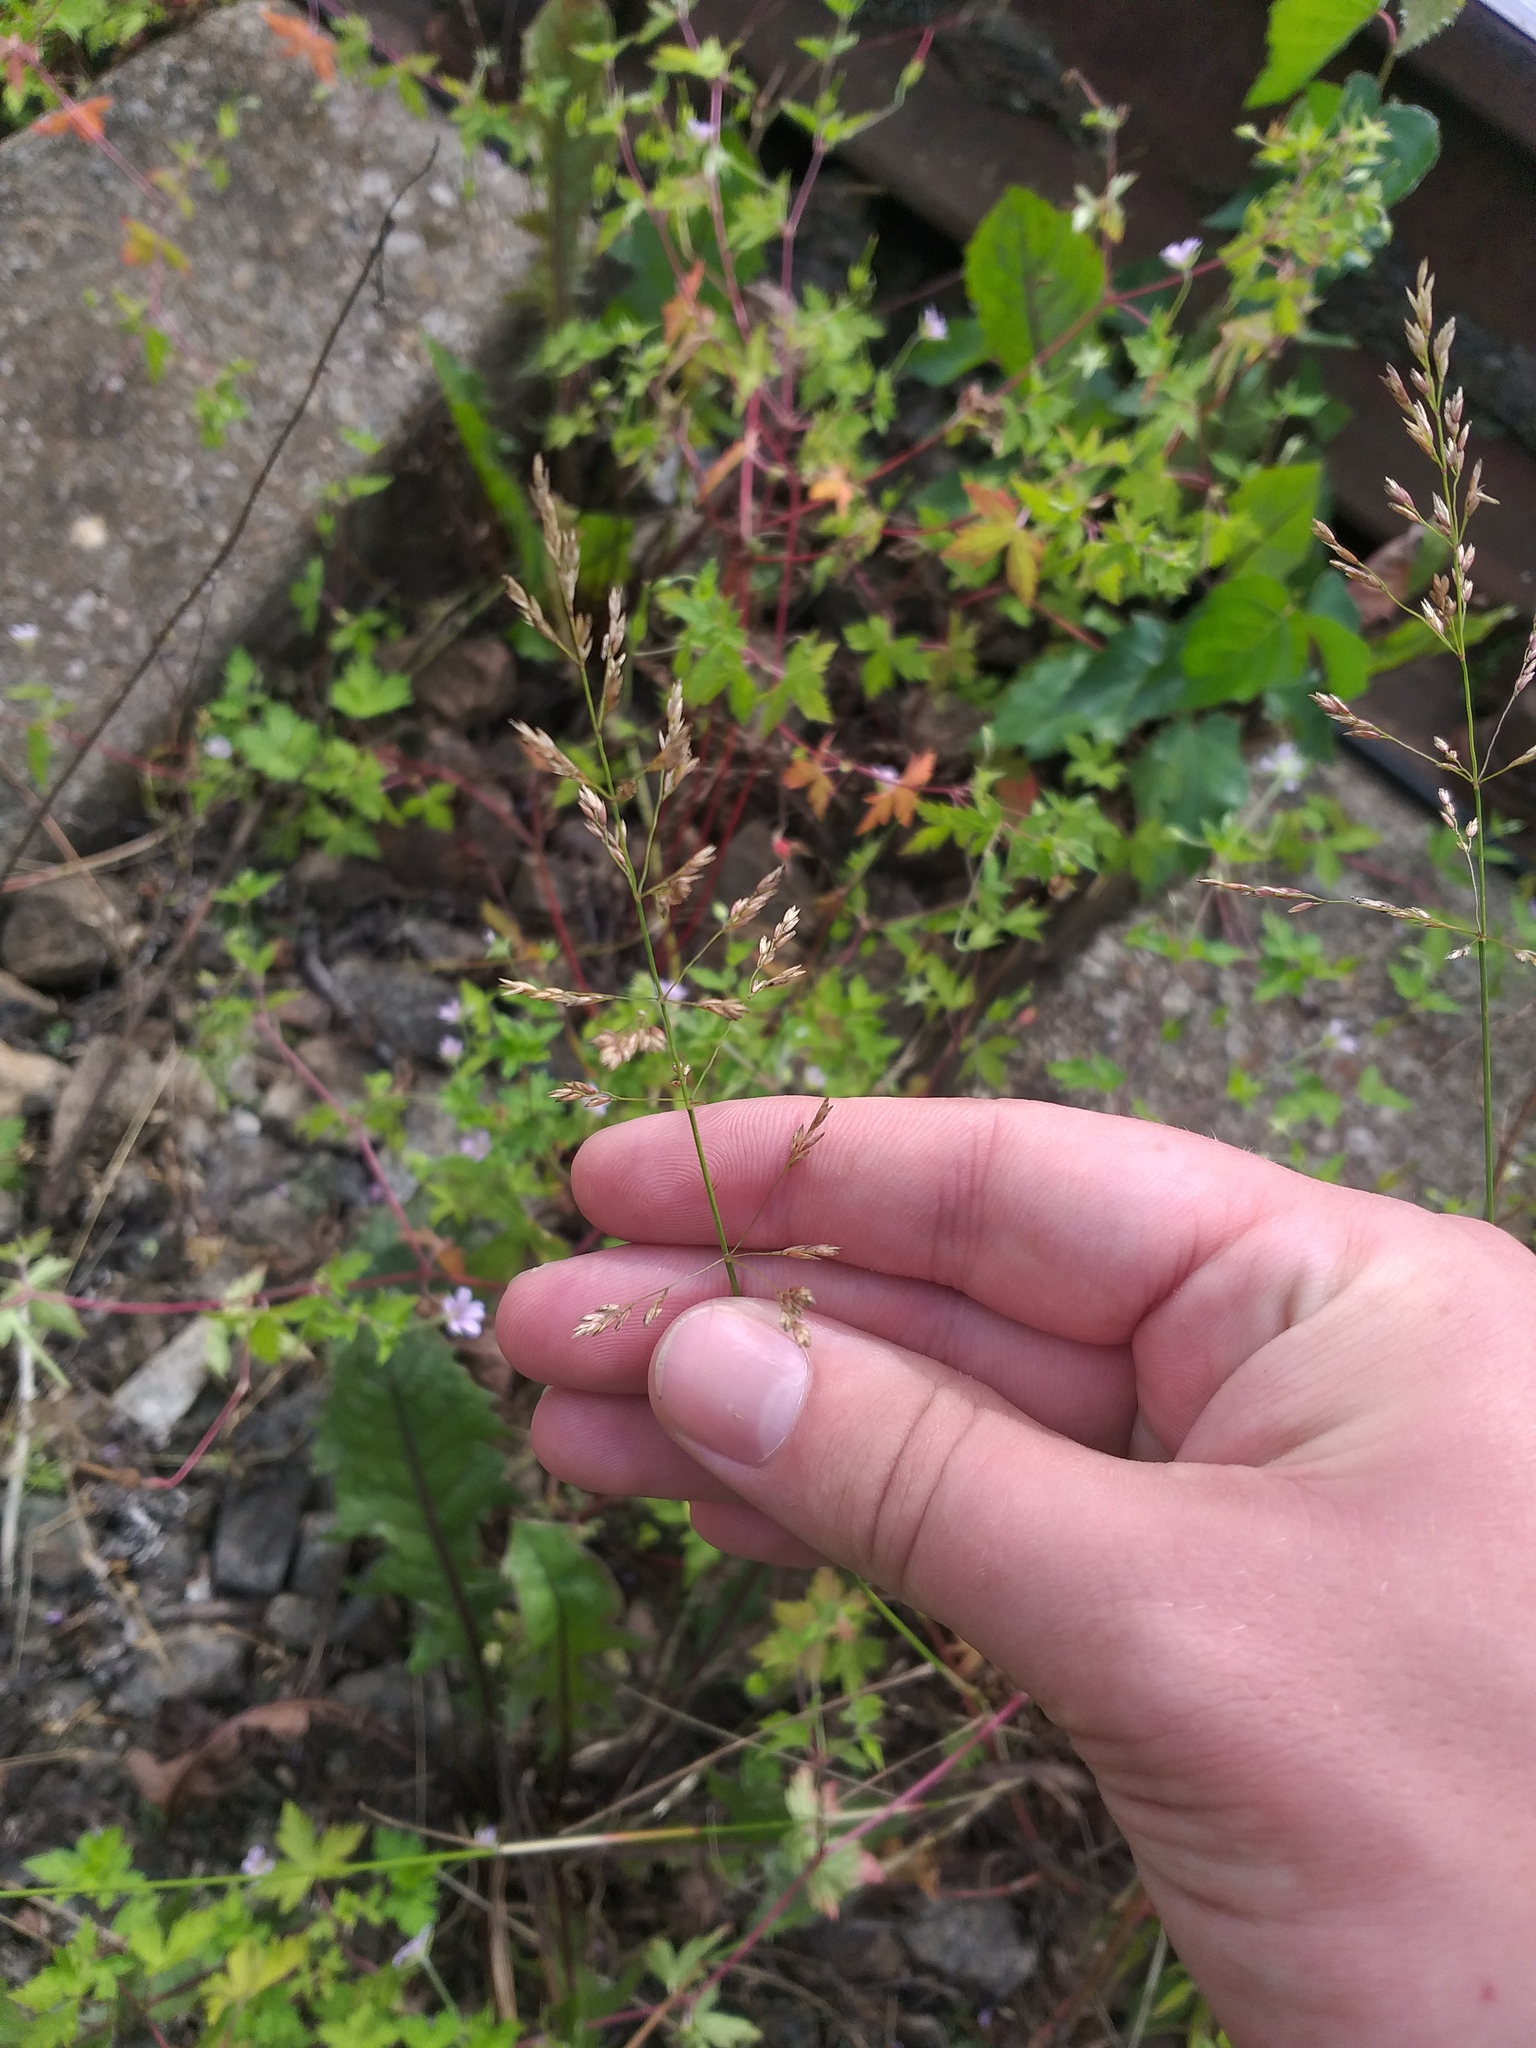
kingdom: Plantae
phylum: Tracheophyta
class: Liliopsida
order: Poales
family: Poaceae
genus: Poa
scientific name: Poa palustris
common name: Swamp meadow-grass
